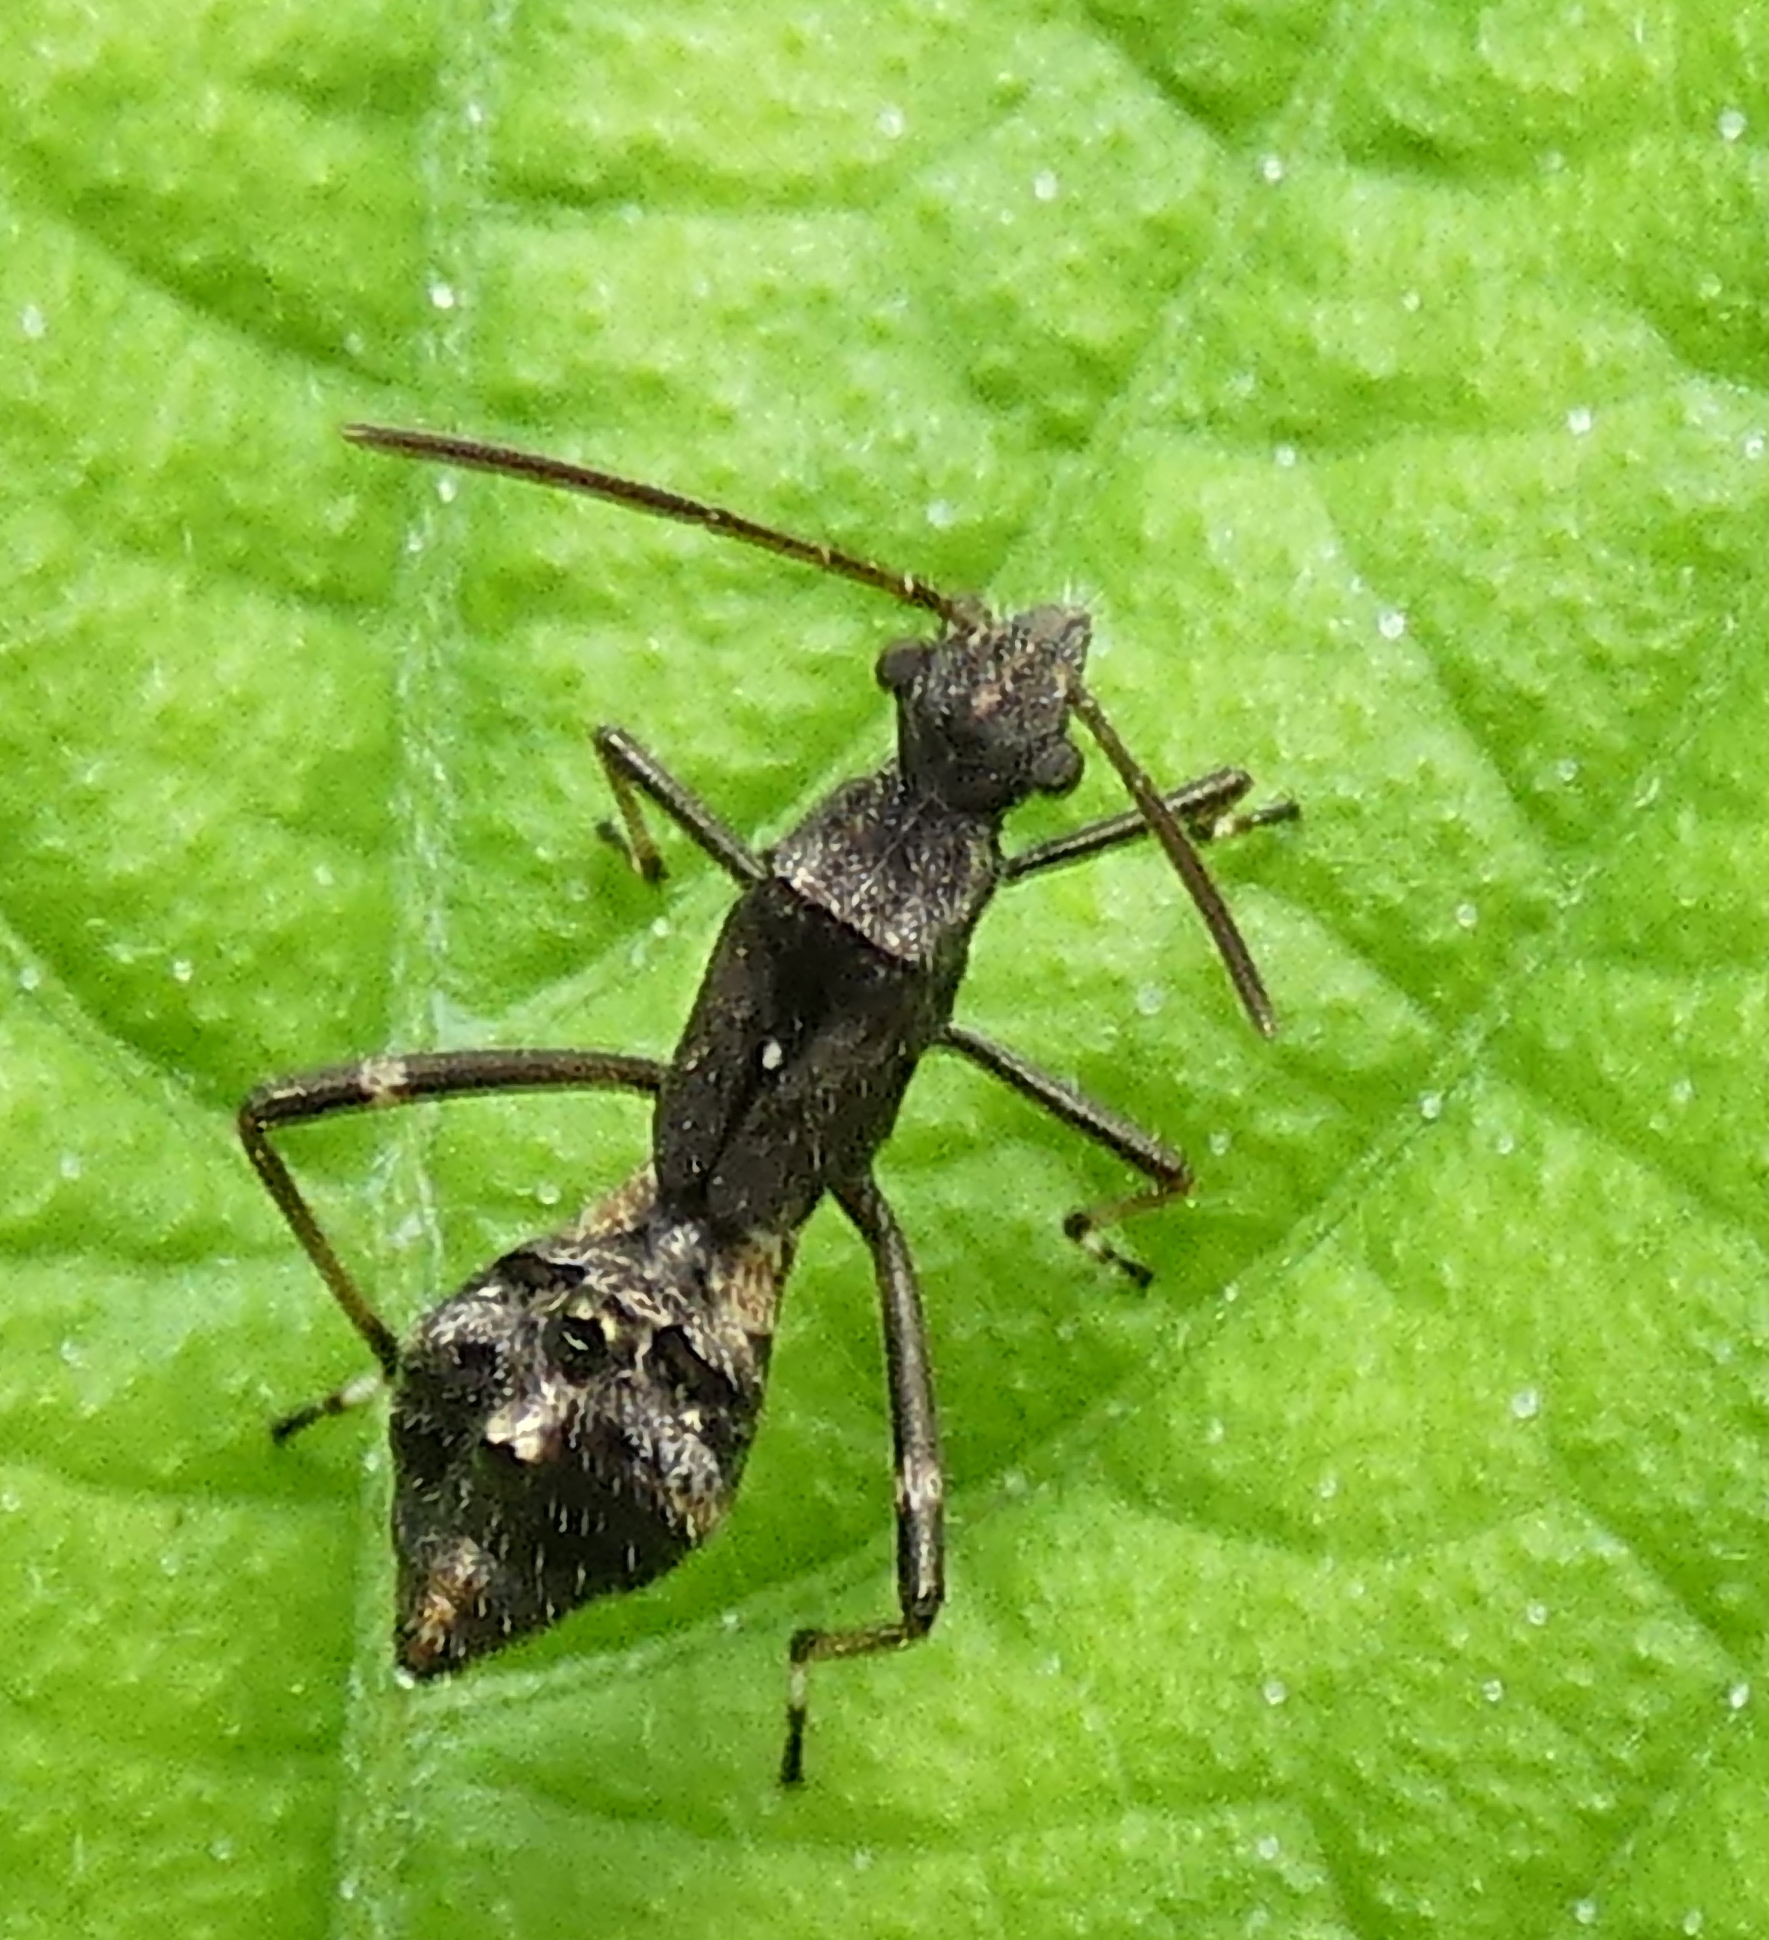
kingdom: Animalia
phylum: Arthropoda
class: Insecta
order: Hemiptera
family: Alydidae
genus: Neomegalotomus
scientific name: Neomegalotomus parvus
